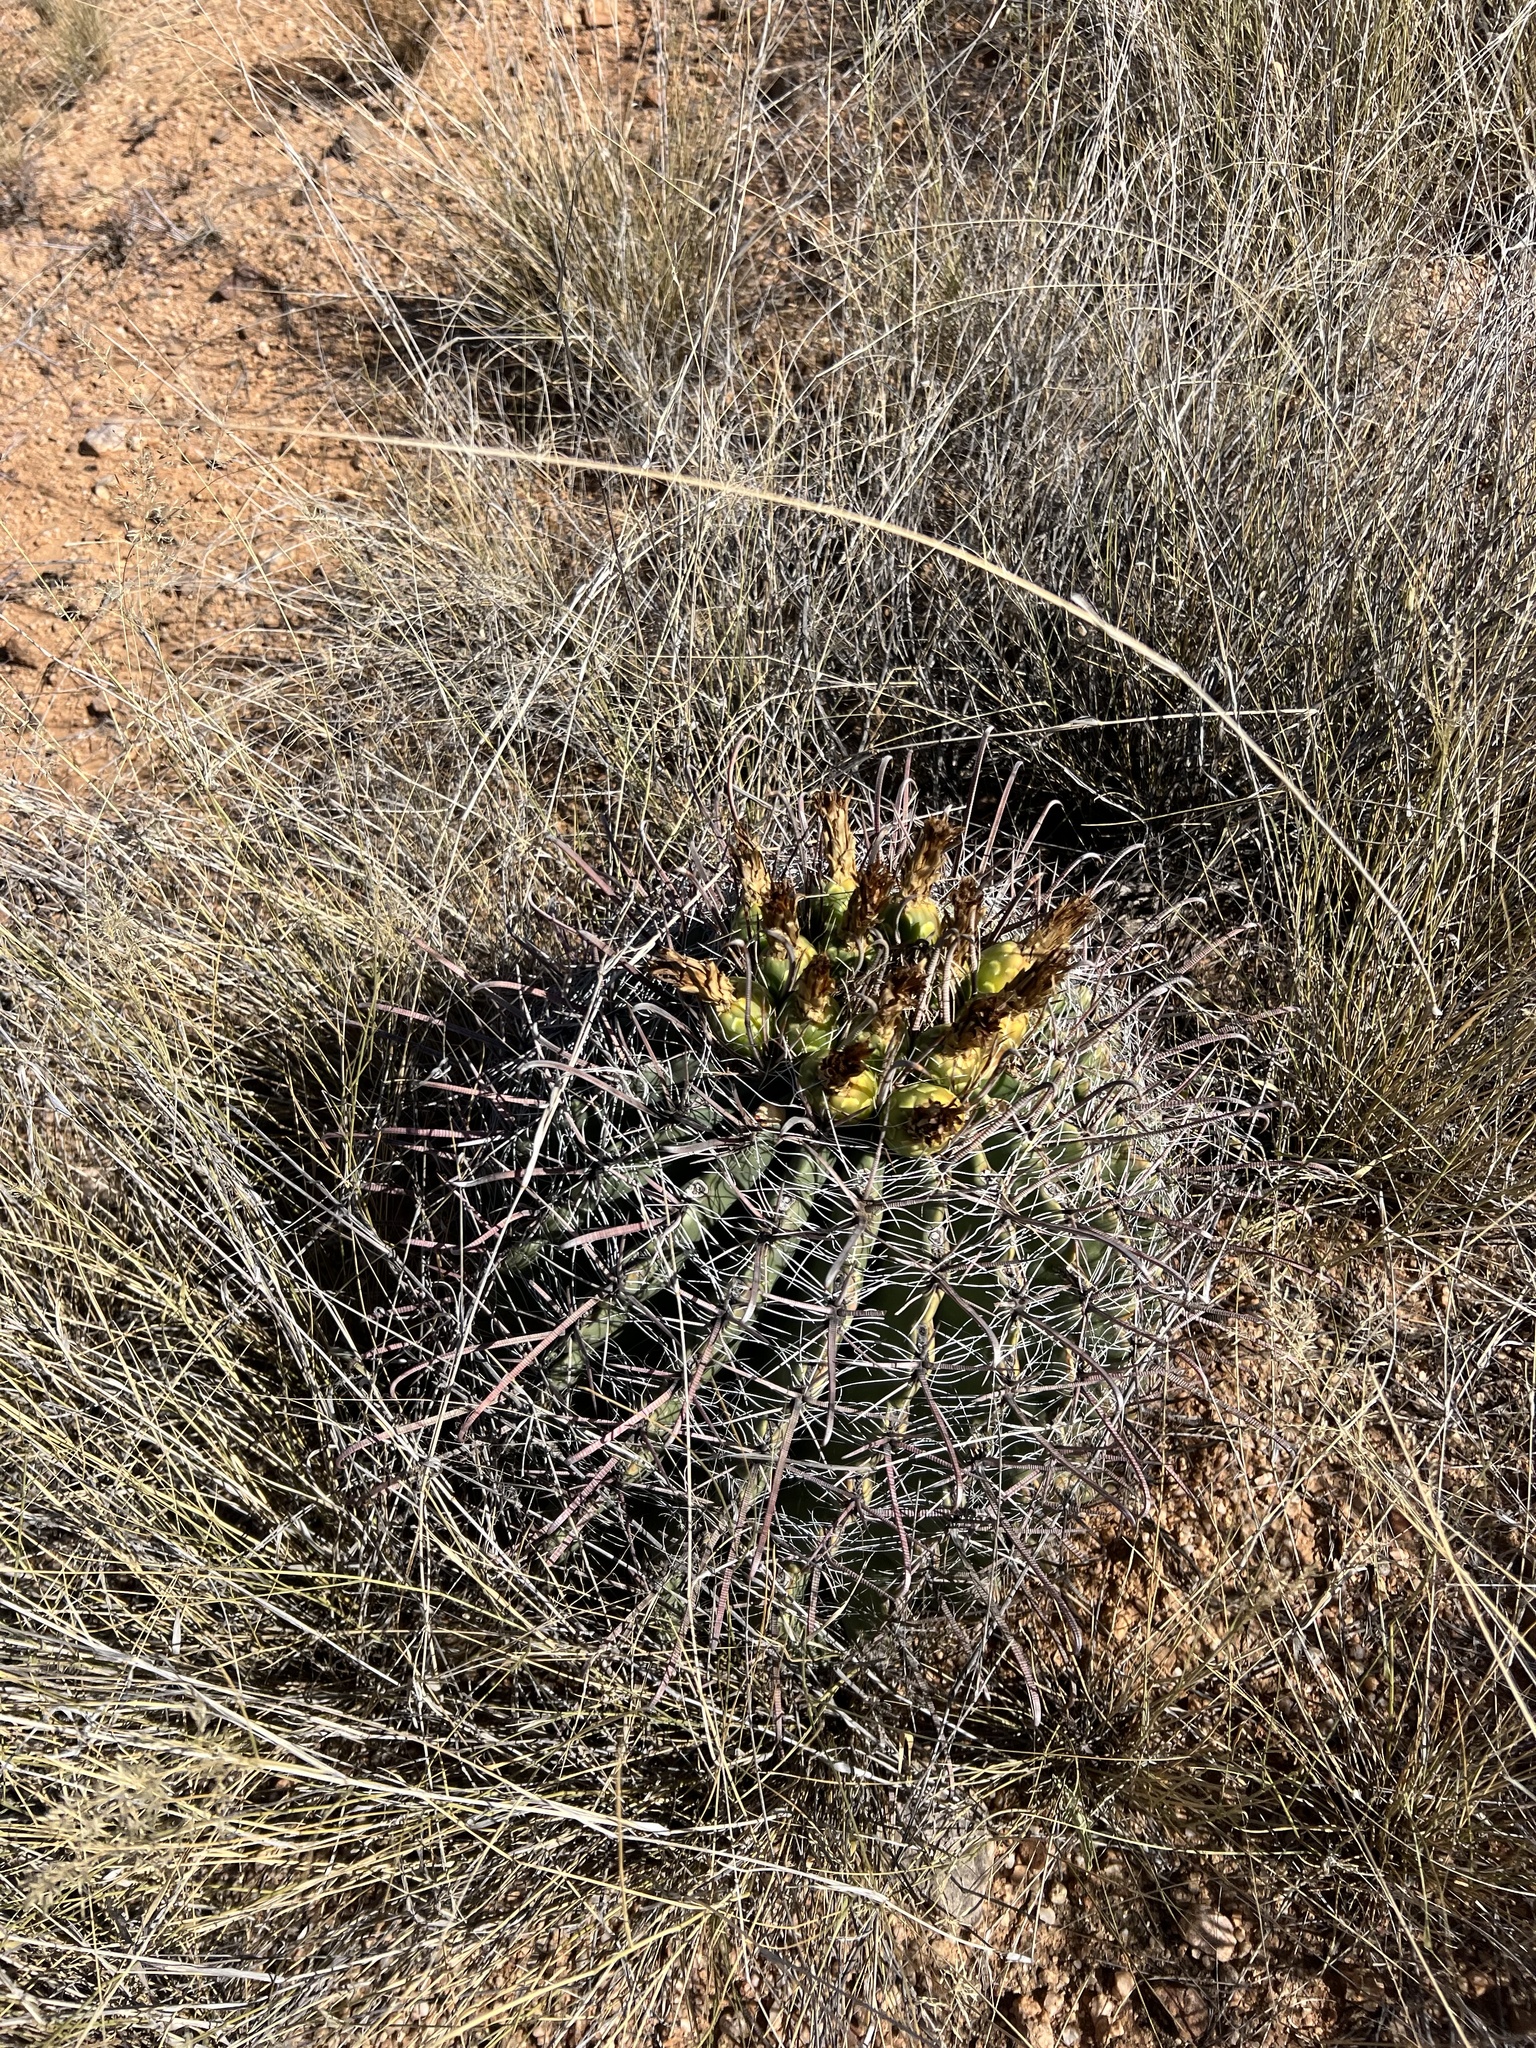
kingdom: Plantae
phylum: Tracheophyta
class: Magnoliopsida
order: Caryophyllales
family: Cactaceae
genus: Ferocactus
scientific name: Ferocactus wislizeni
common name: Candy barrel cactus
